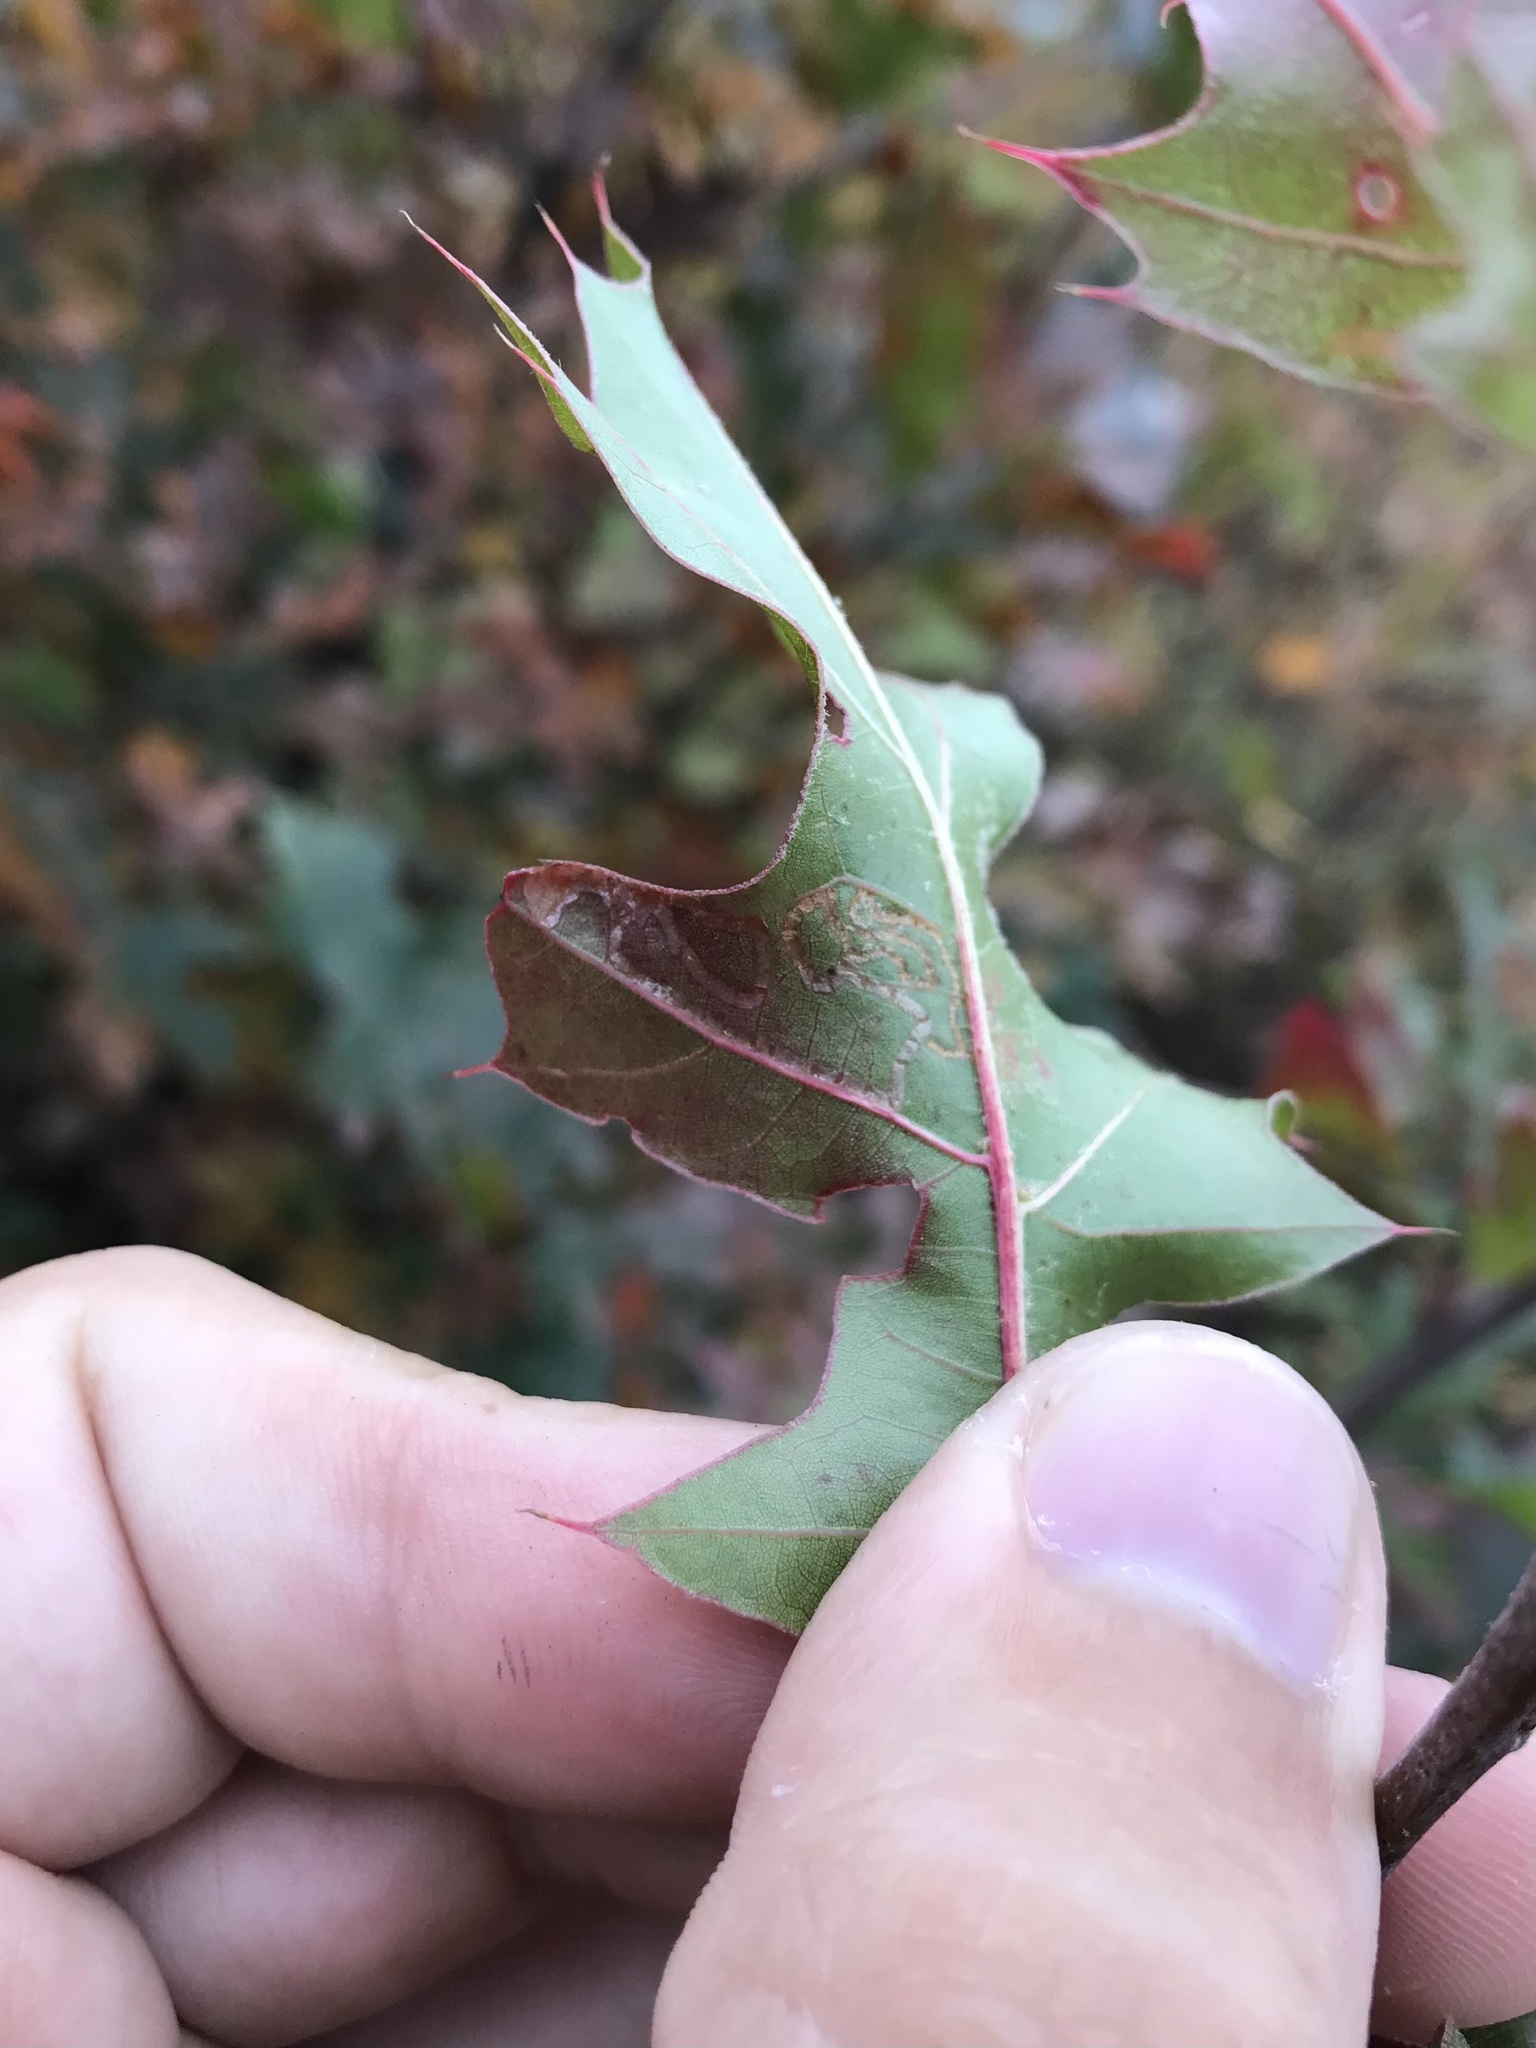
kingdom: Animalia
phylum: Arthropoda
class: Insecta
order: Lepidoptera
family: Gracillariidae
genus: Acrocercops
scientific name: Acrocercops albinatella
